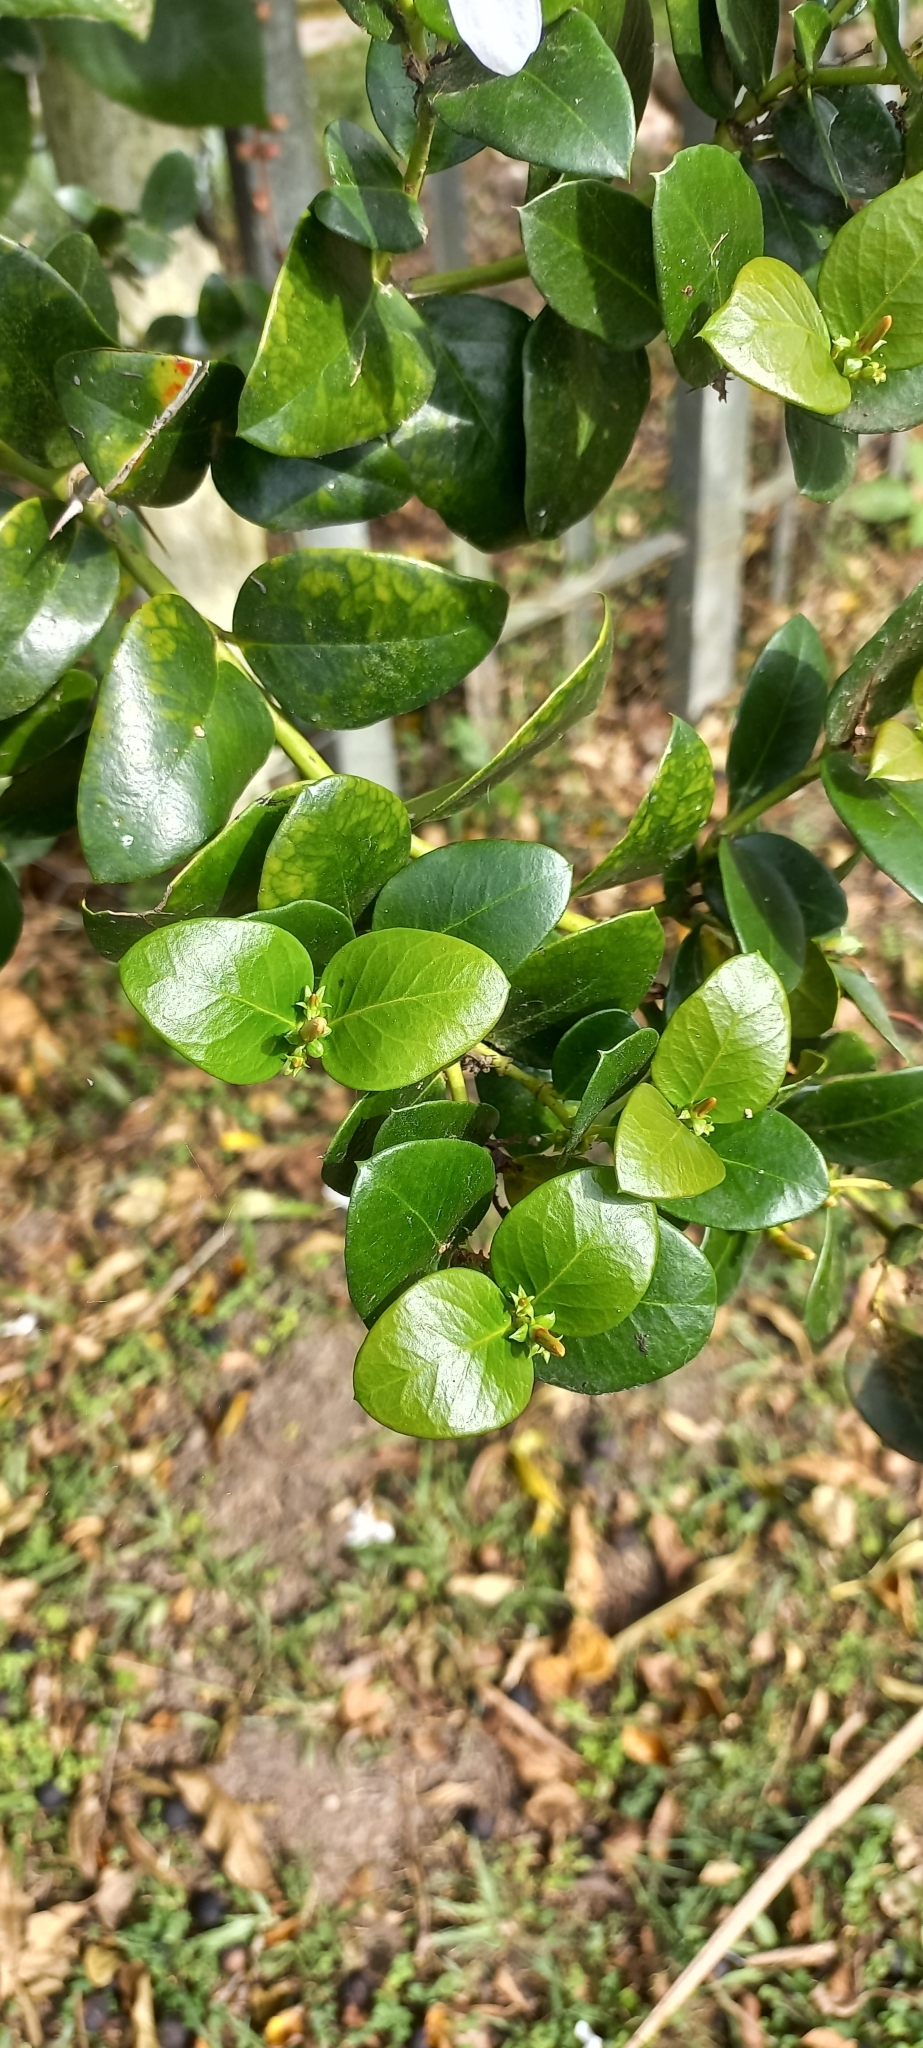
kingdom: Plantae
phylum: Tracheophyta
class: Magnoliopsida
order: Gentianales
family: Apocynaceae
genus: Carissa
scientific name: Carissa macrocarpa
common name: Natal plum
